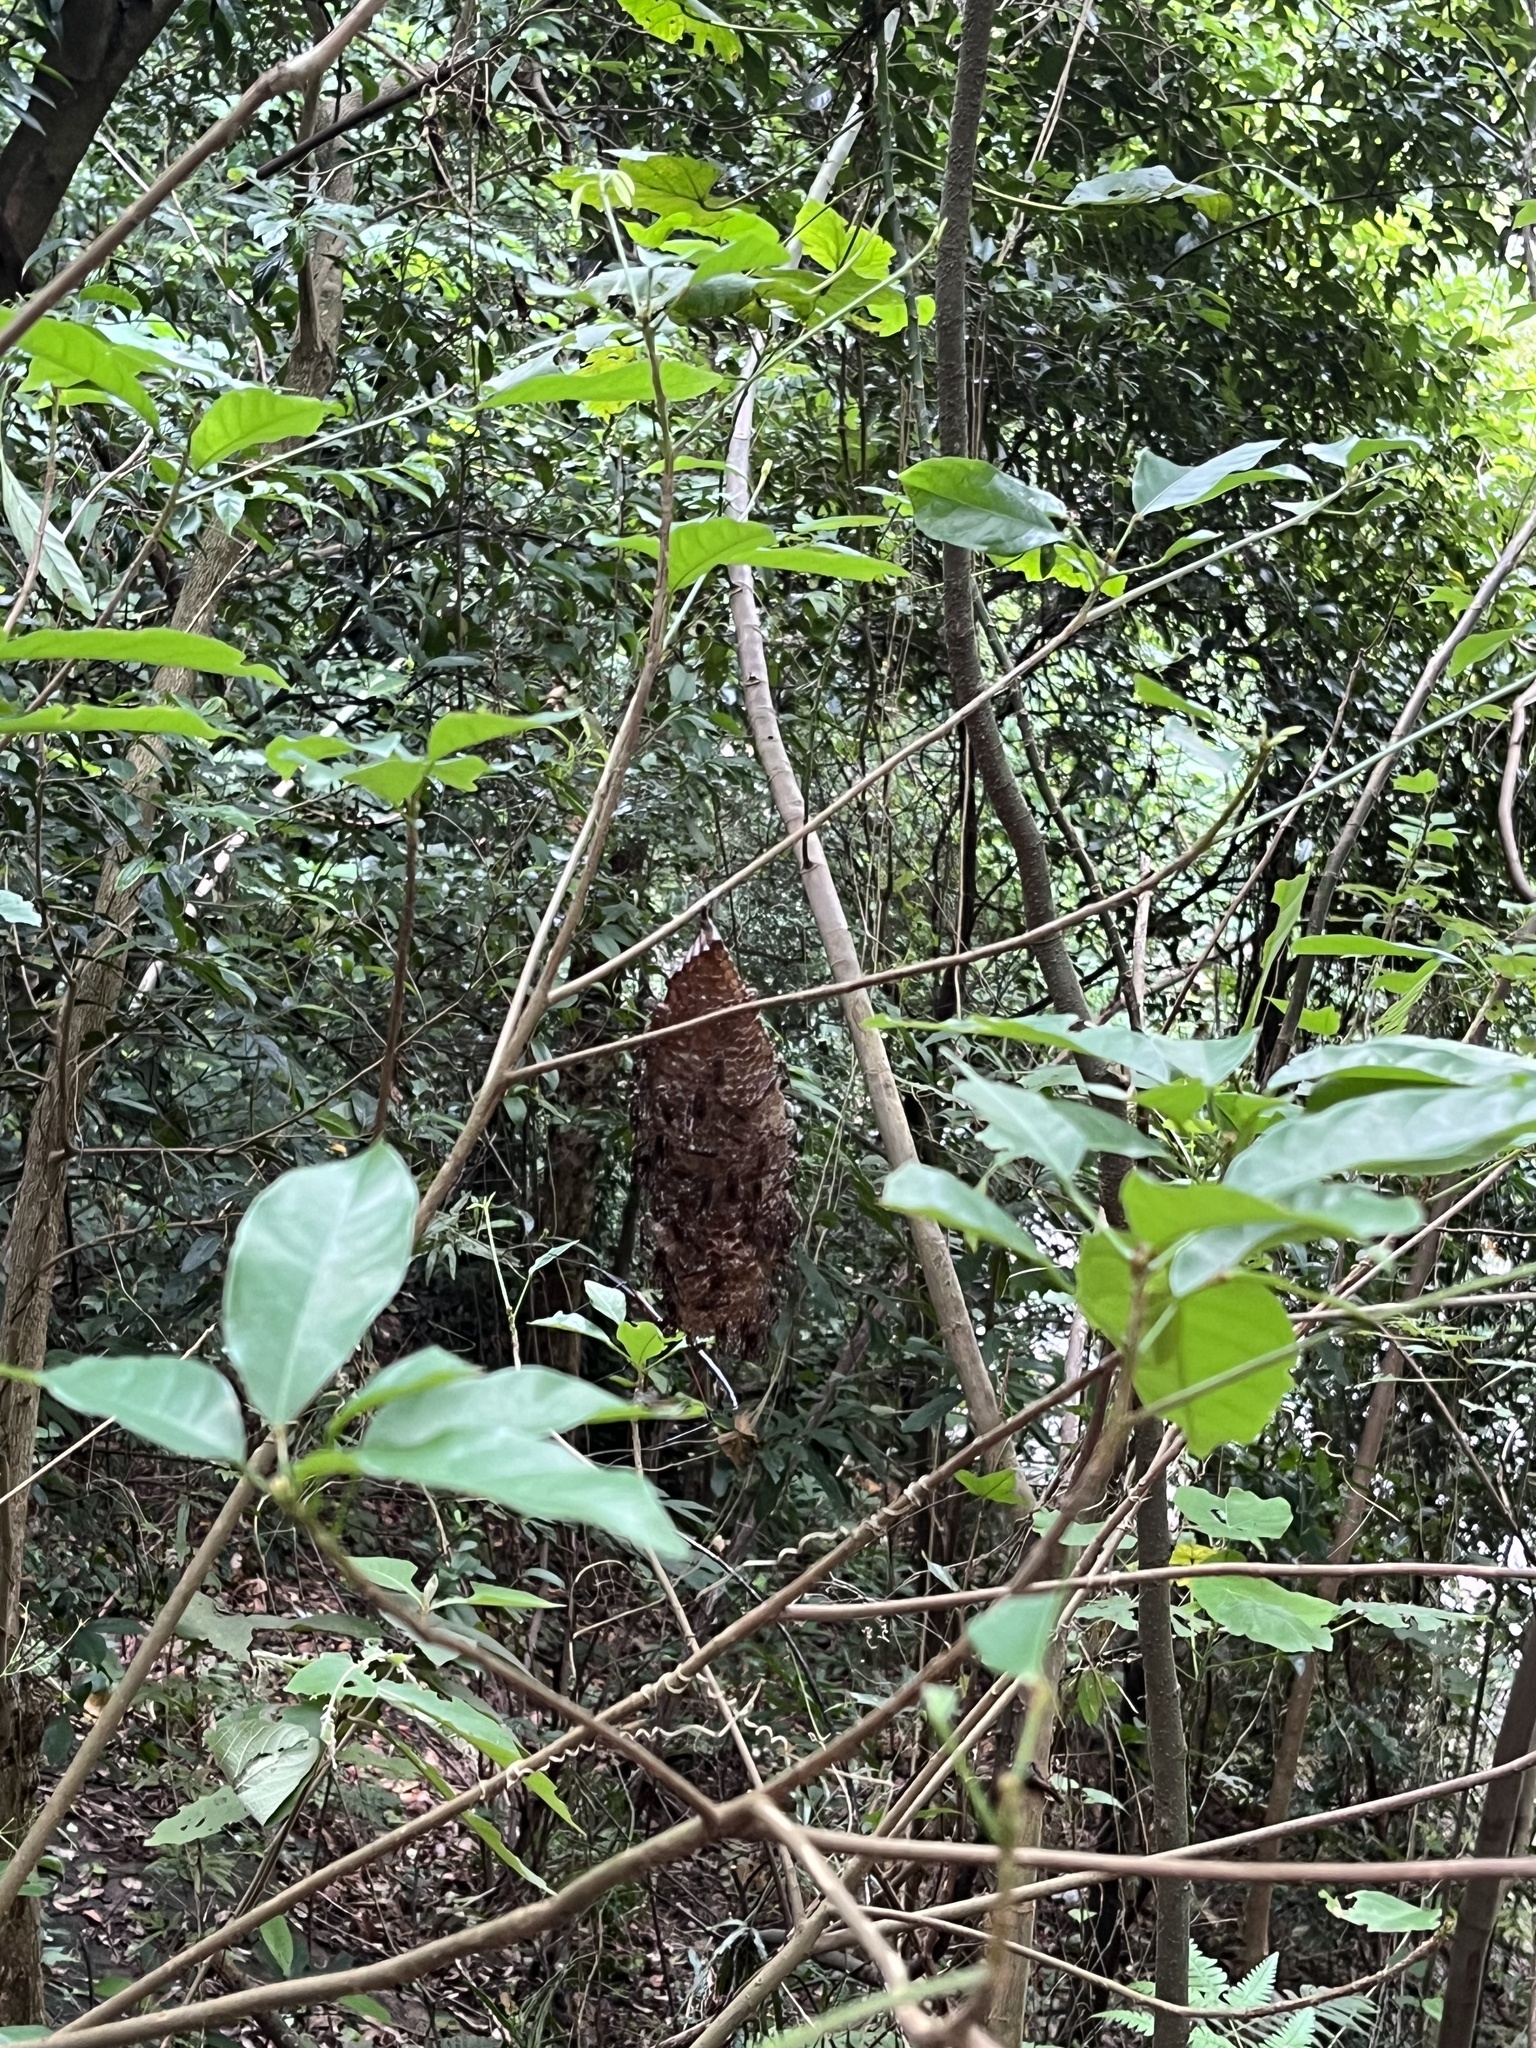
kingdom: Animalia
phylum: Arthropoda
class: Insecta
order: Hymenoptera
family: Vespidae
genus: Parapolybia
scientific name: Parapolybia nodosa
